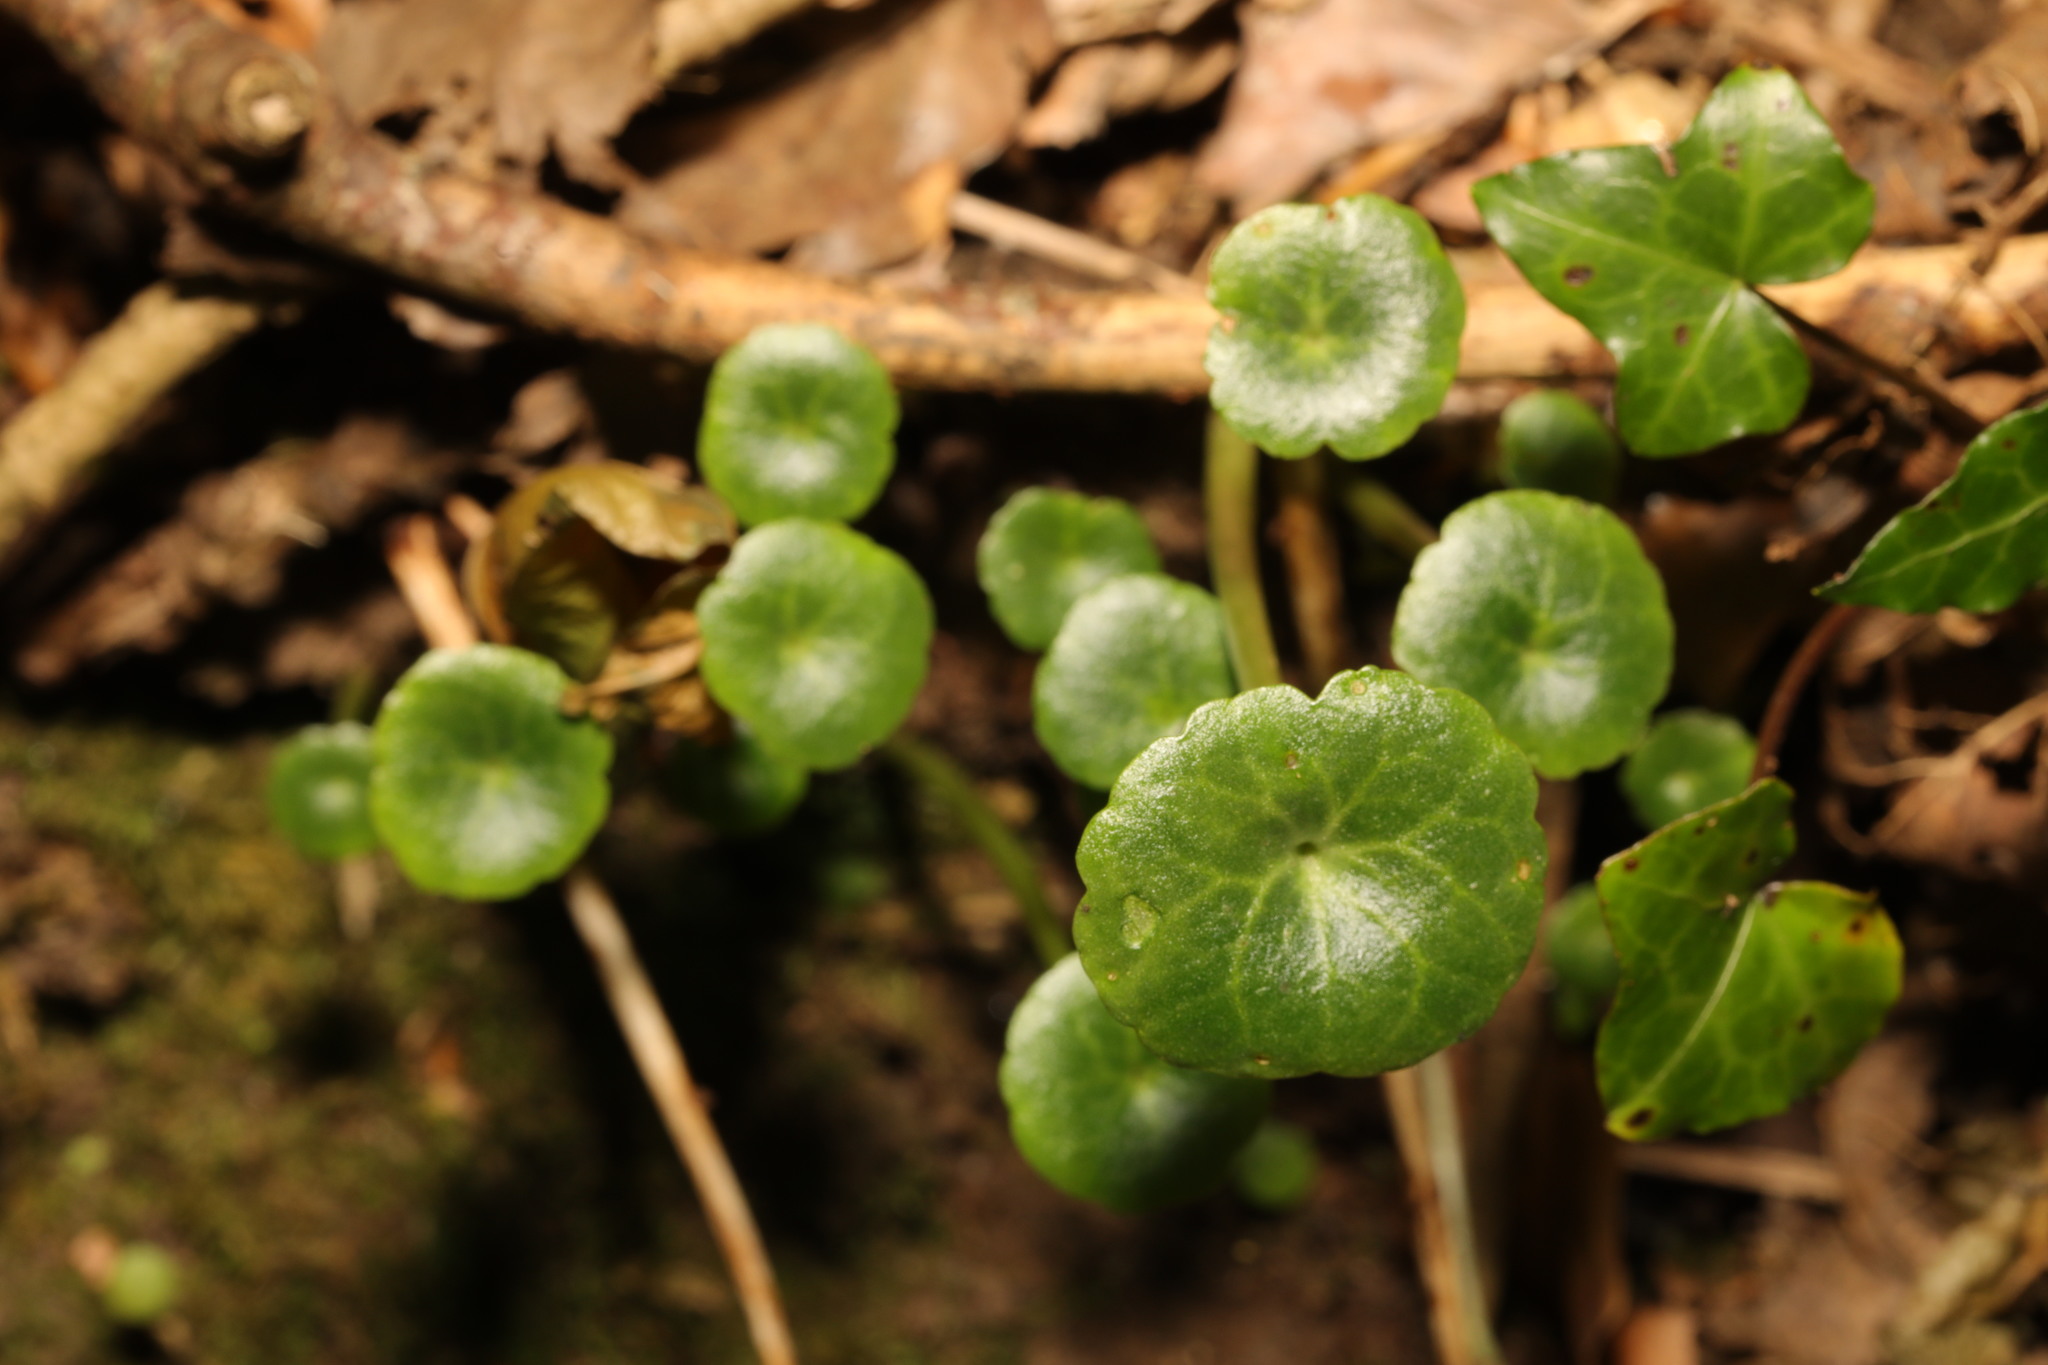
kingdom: Plantae
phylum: Tracheophyta
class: Magnoliopsida
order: Saxifragales
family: Crassulaceae
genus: Umbilicus
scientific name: Umbilicus rupestris
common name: Navelwort
